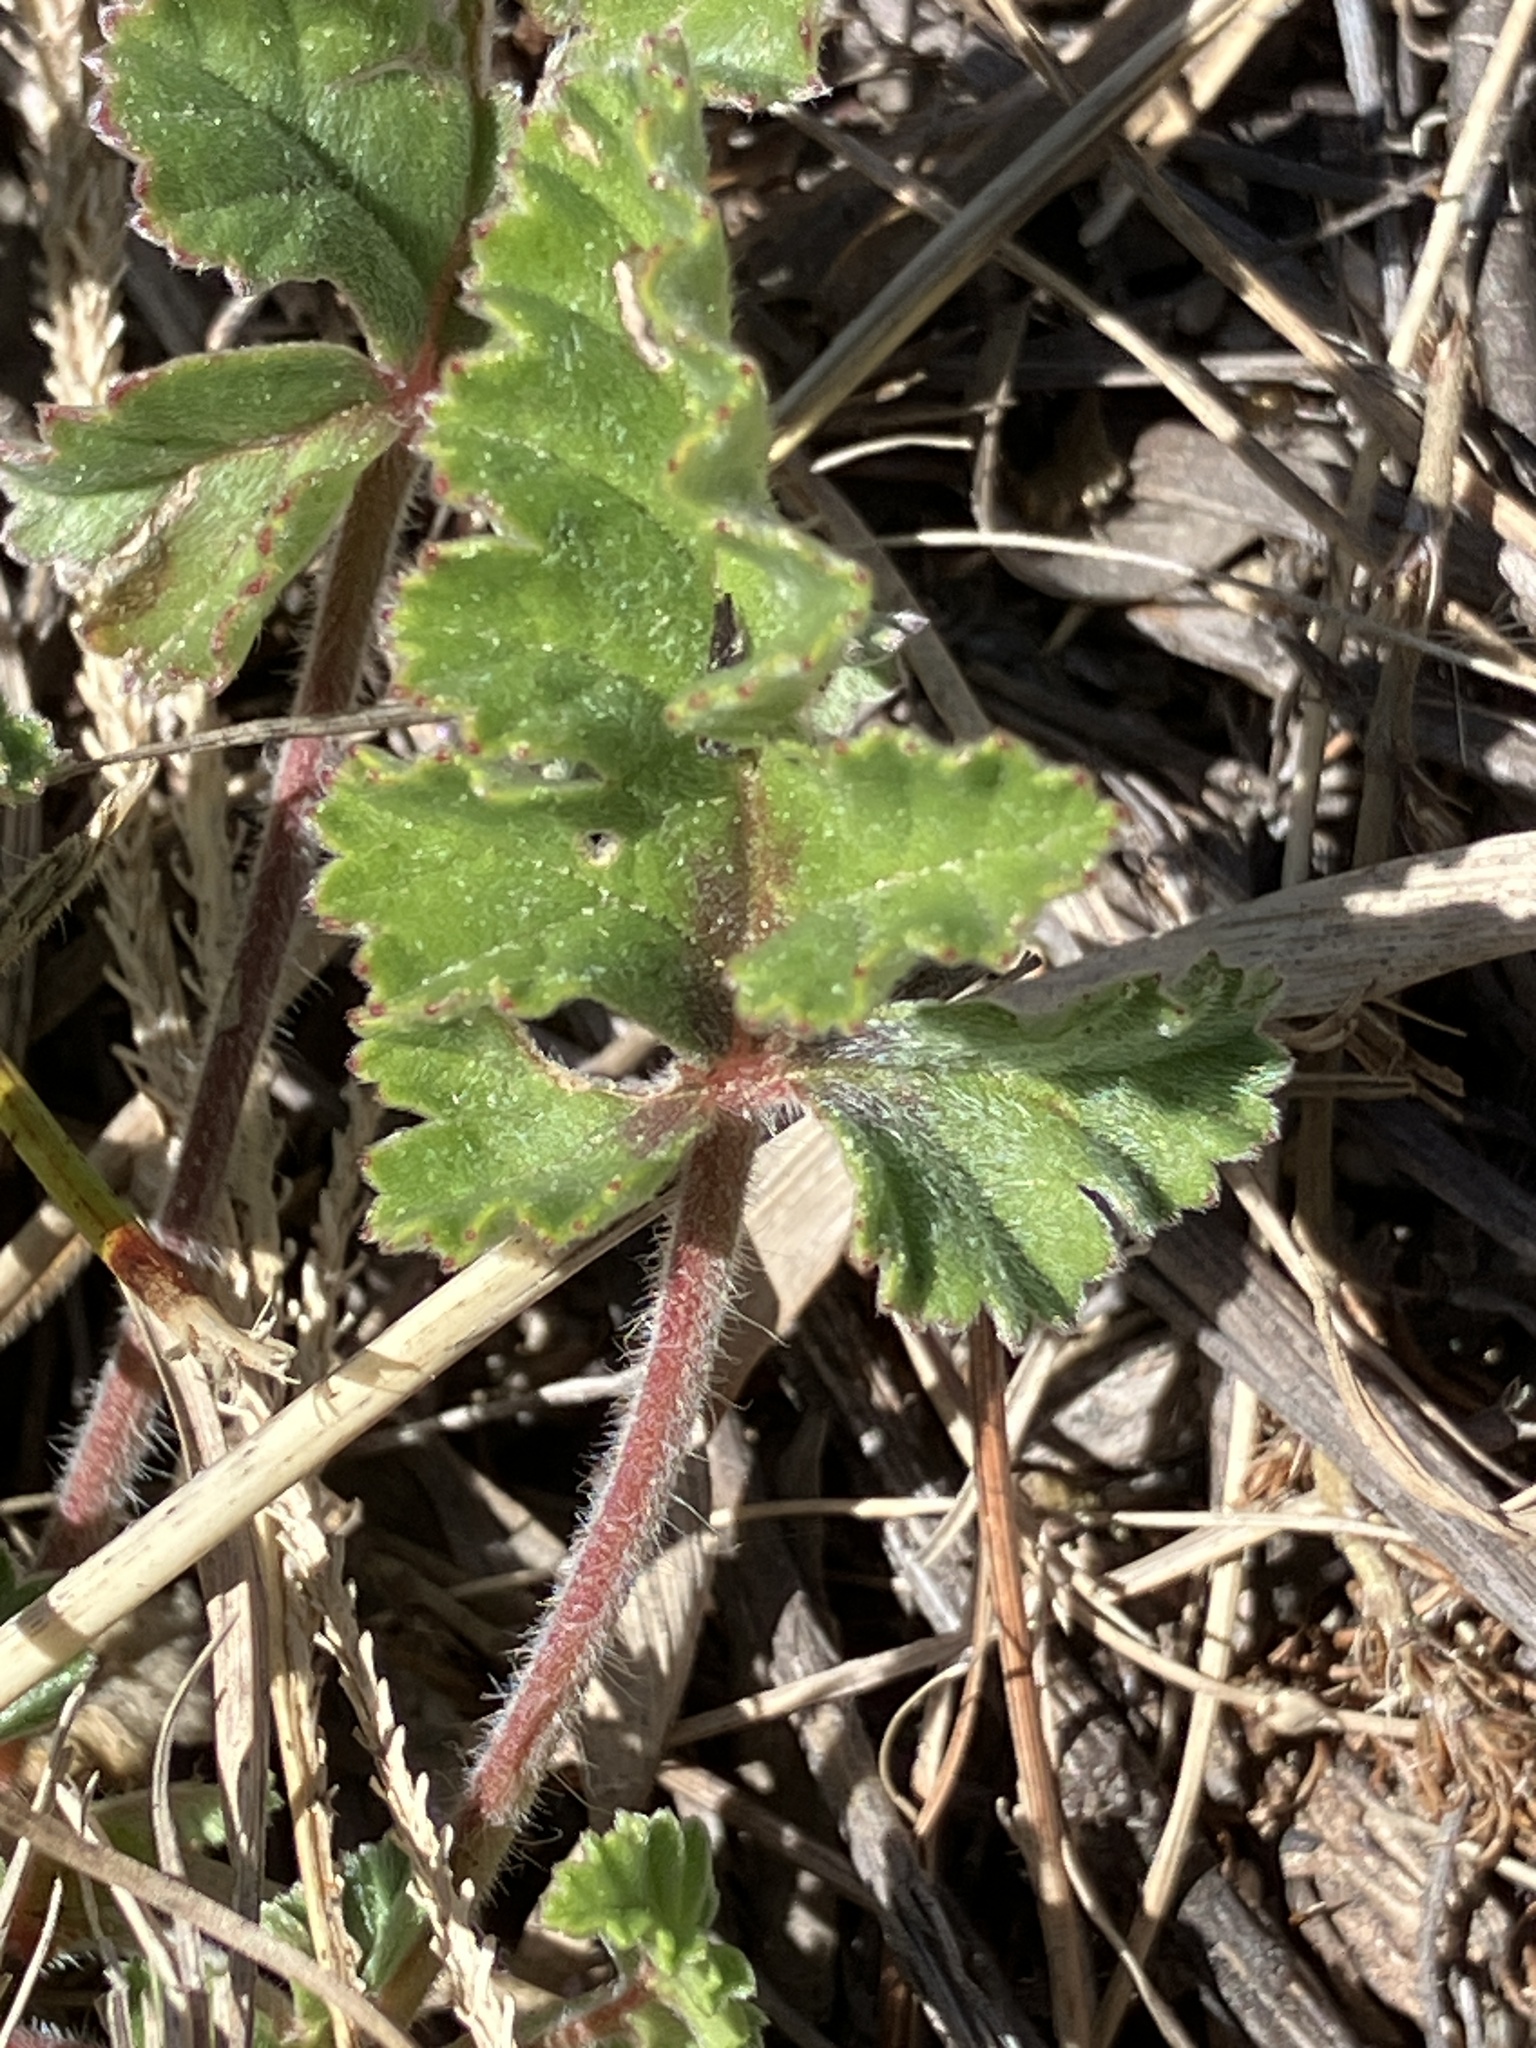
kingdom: Plantae
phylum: Tracheophyta
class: Magnoliopsida
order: Geraniales
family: Geraniaceae
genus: Pelargonium
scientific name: Pelargonium candicans
